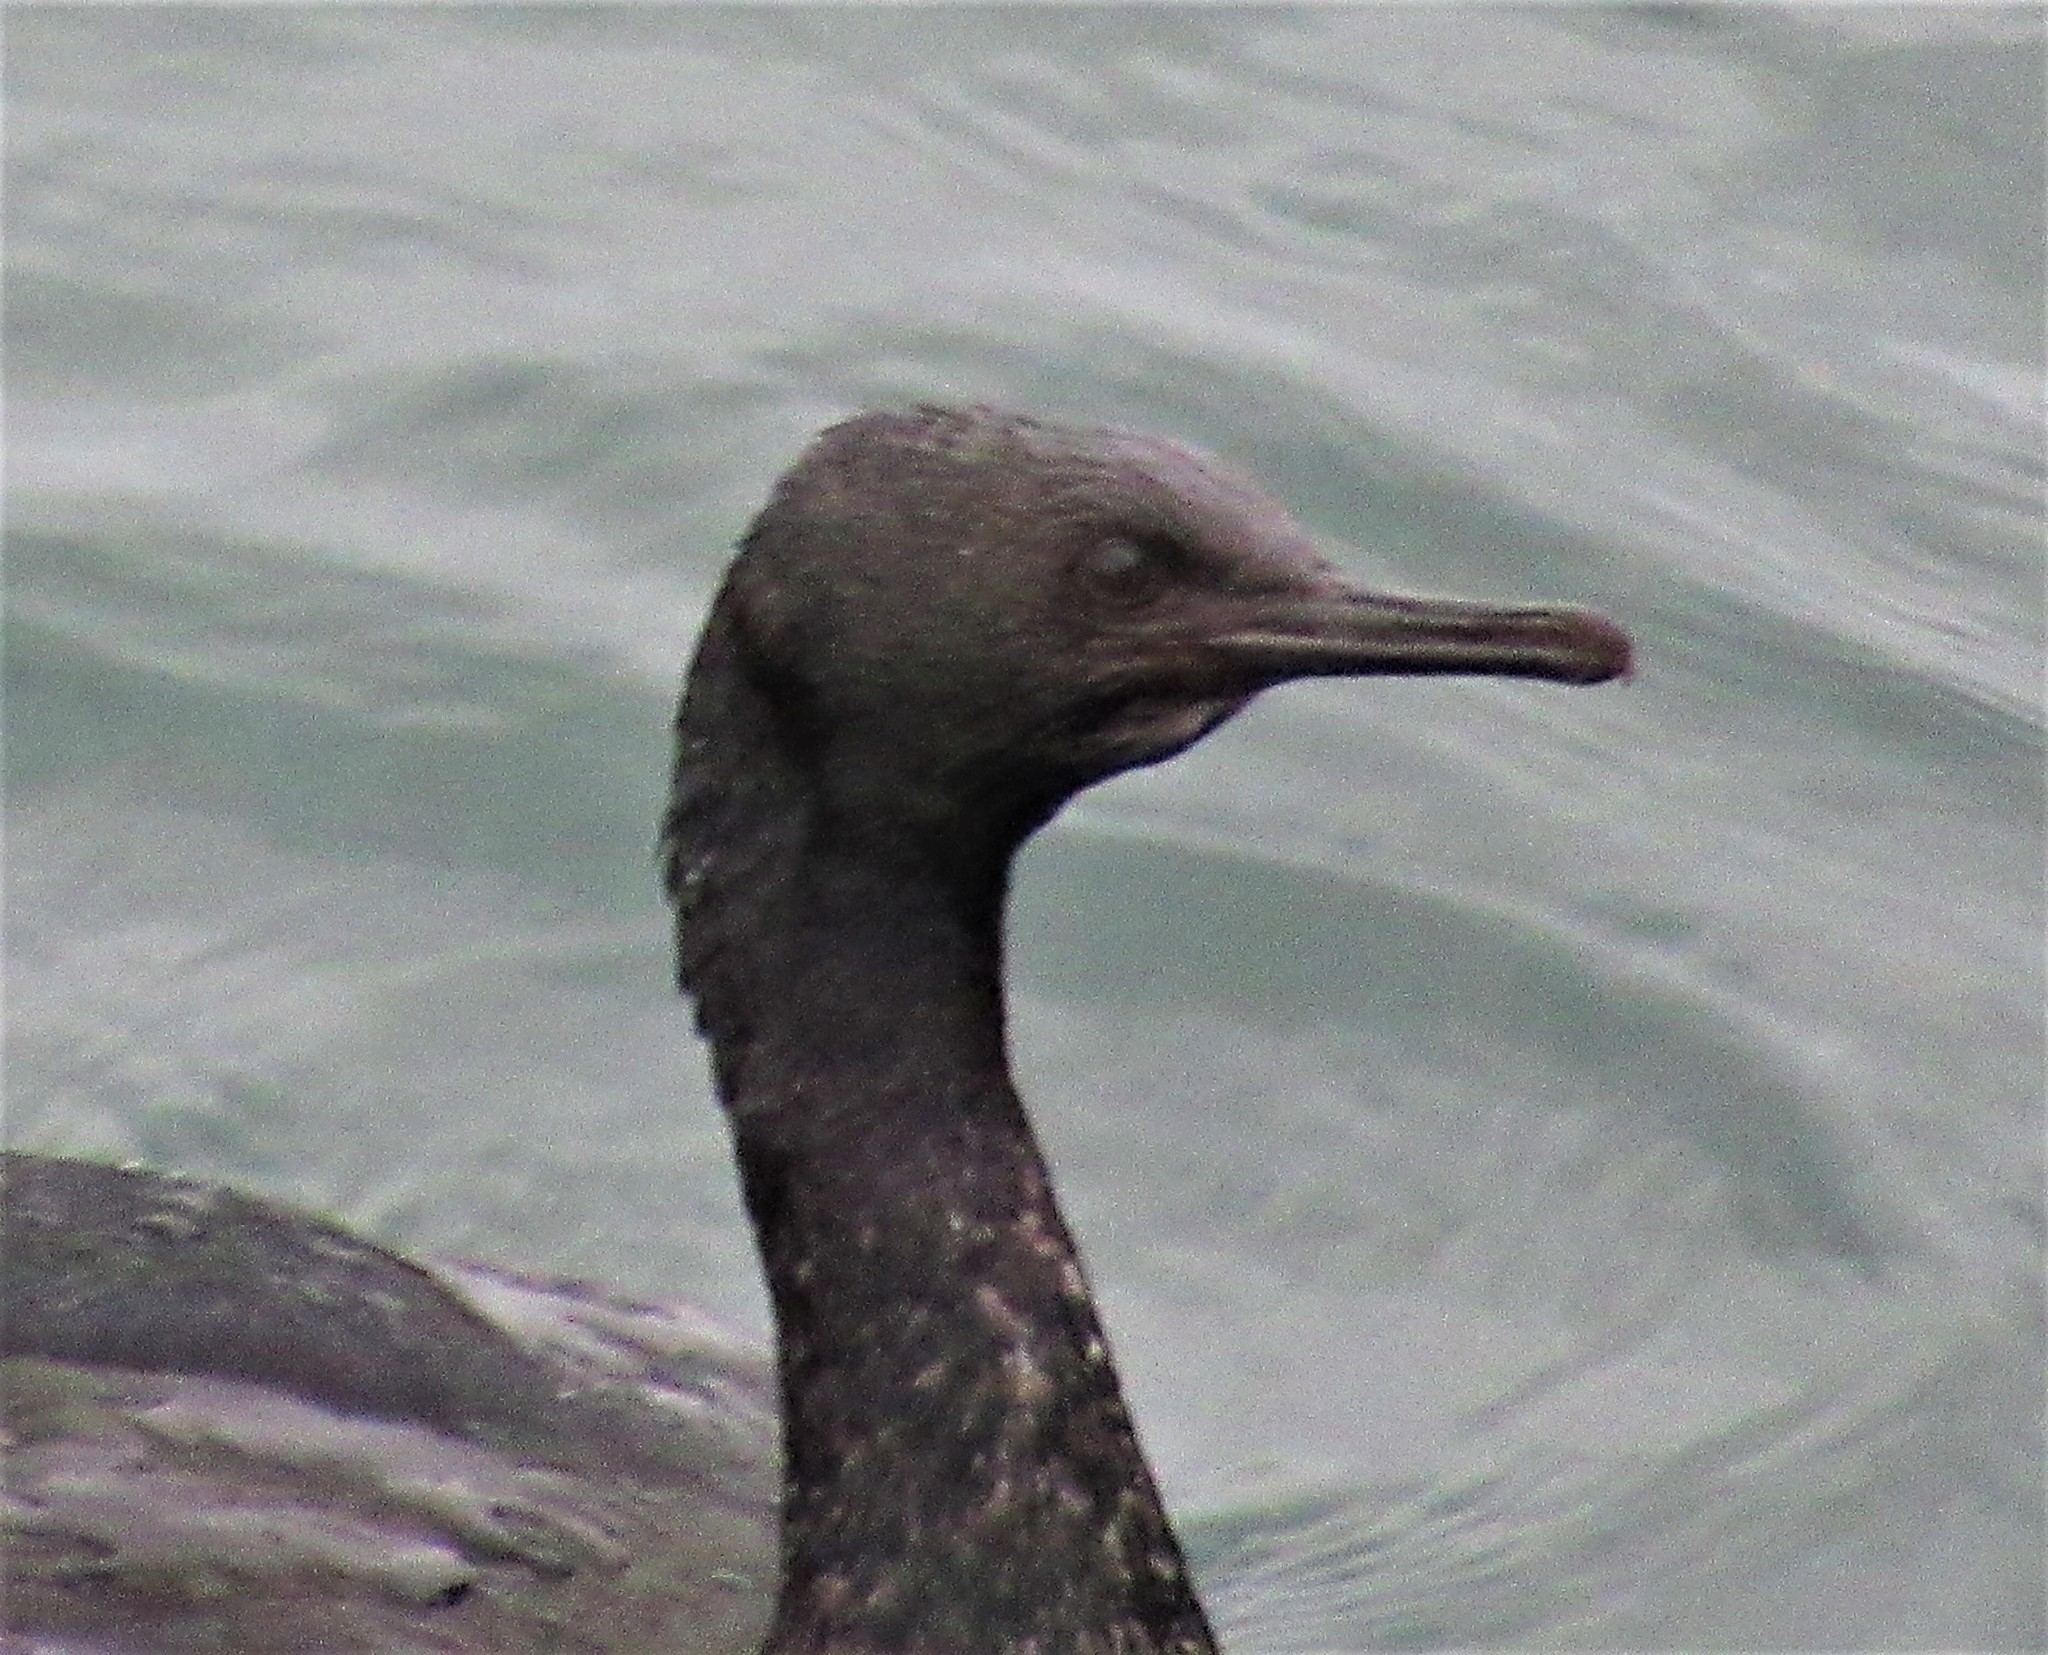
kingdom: Animalia
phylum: Chordata
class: Aves
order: Suliformes
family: Phalacrocoracidae
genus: Phalacrocorax
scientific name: Phalacrocorax pelagicus
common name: Pelagic cormorant
